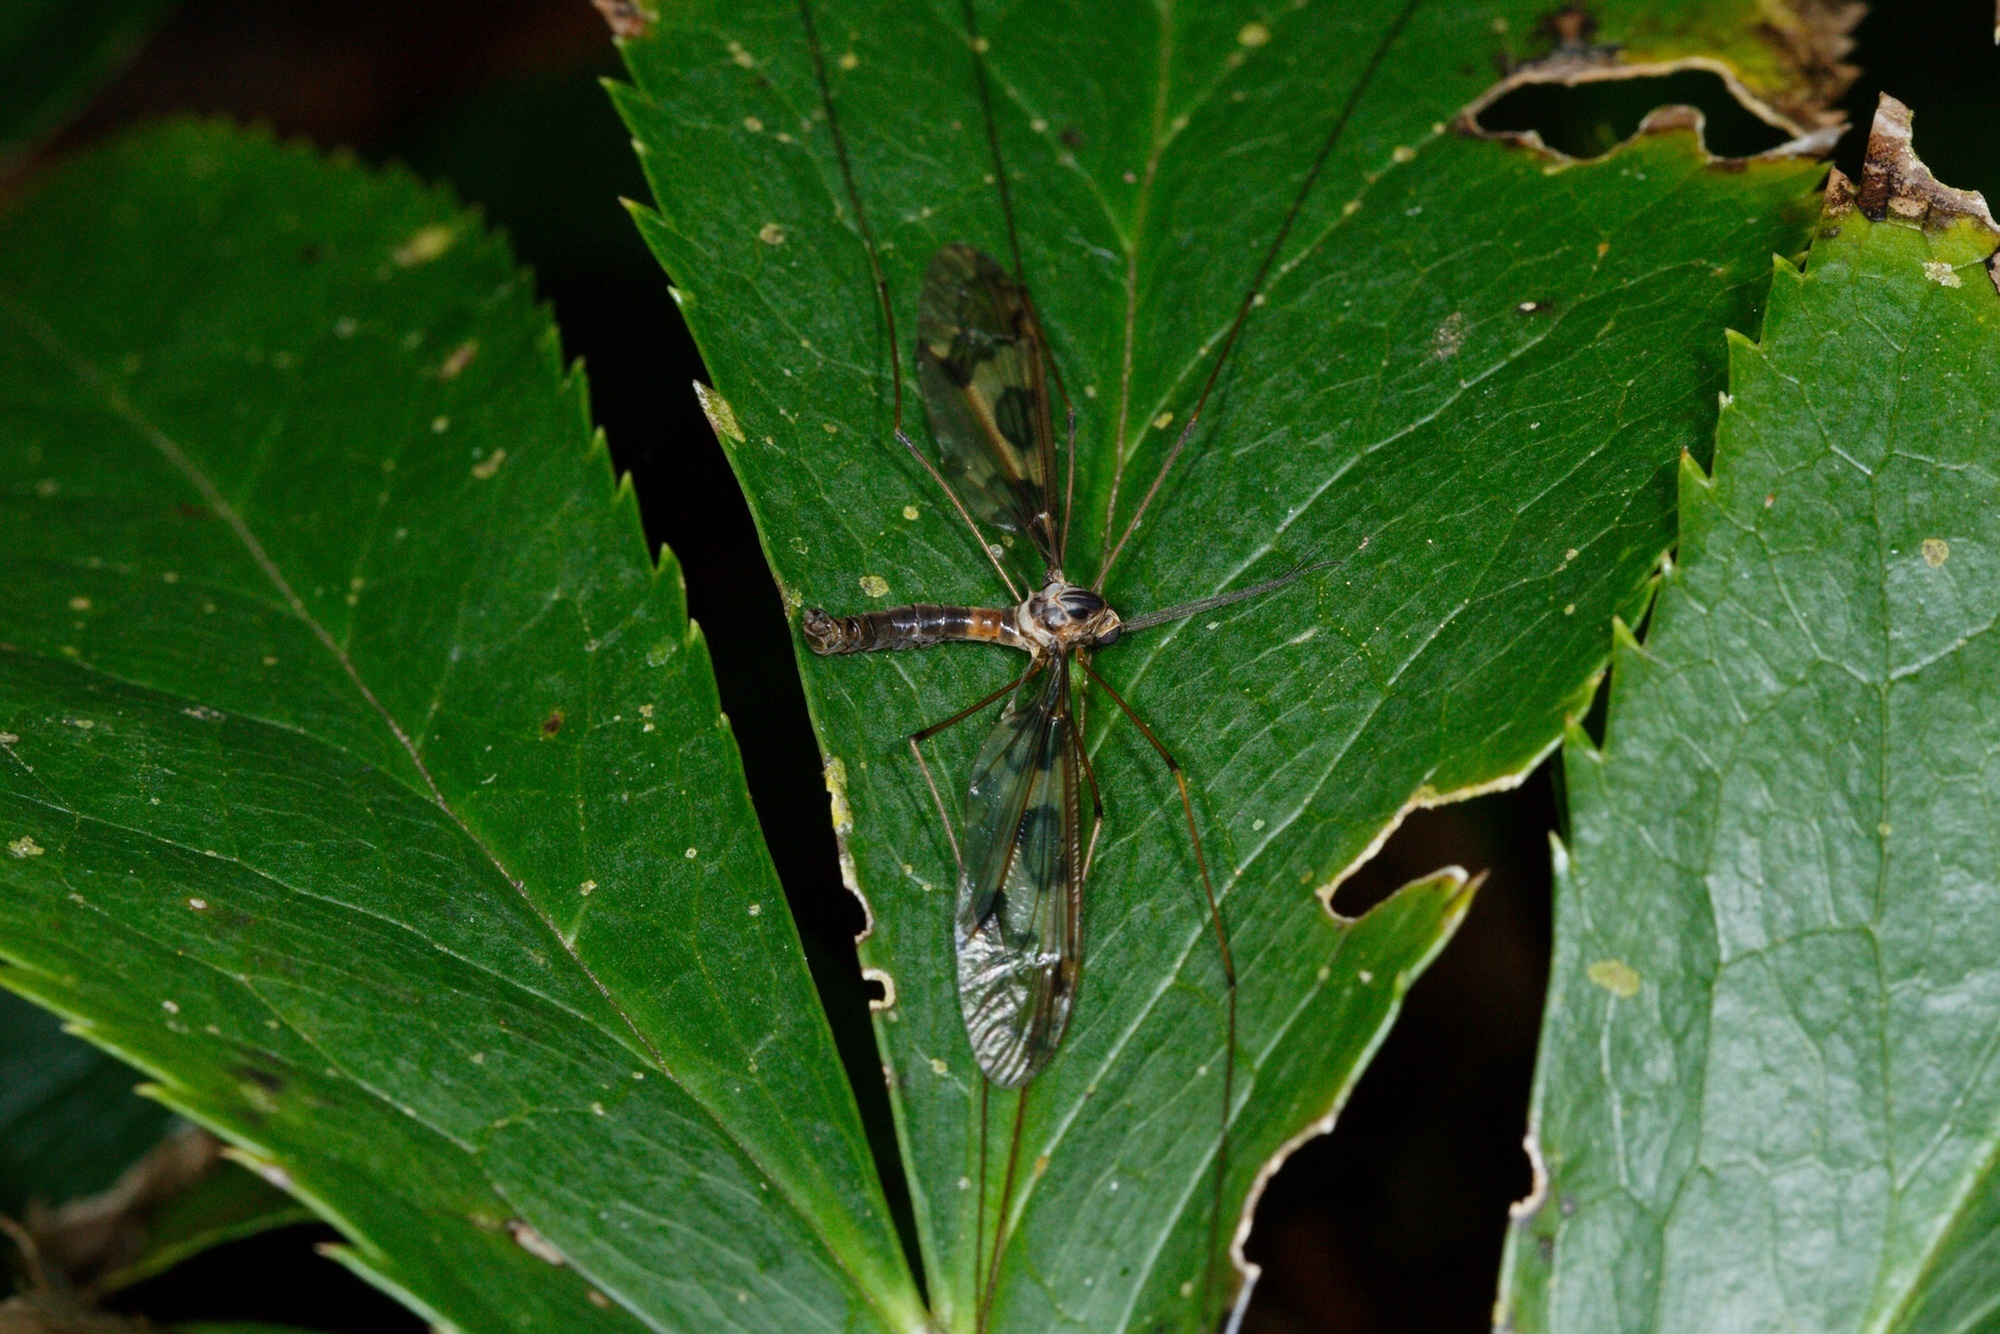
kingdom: Animalia
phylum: Arthropoda
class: Insecta
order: Diptera
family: Tipulidae
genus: Leptotarsus
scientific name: Leptotarsus binotatus
